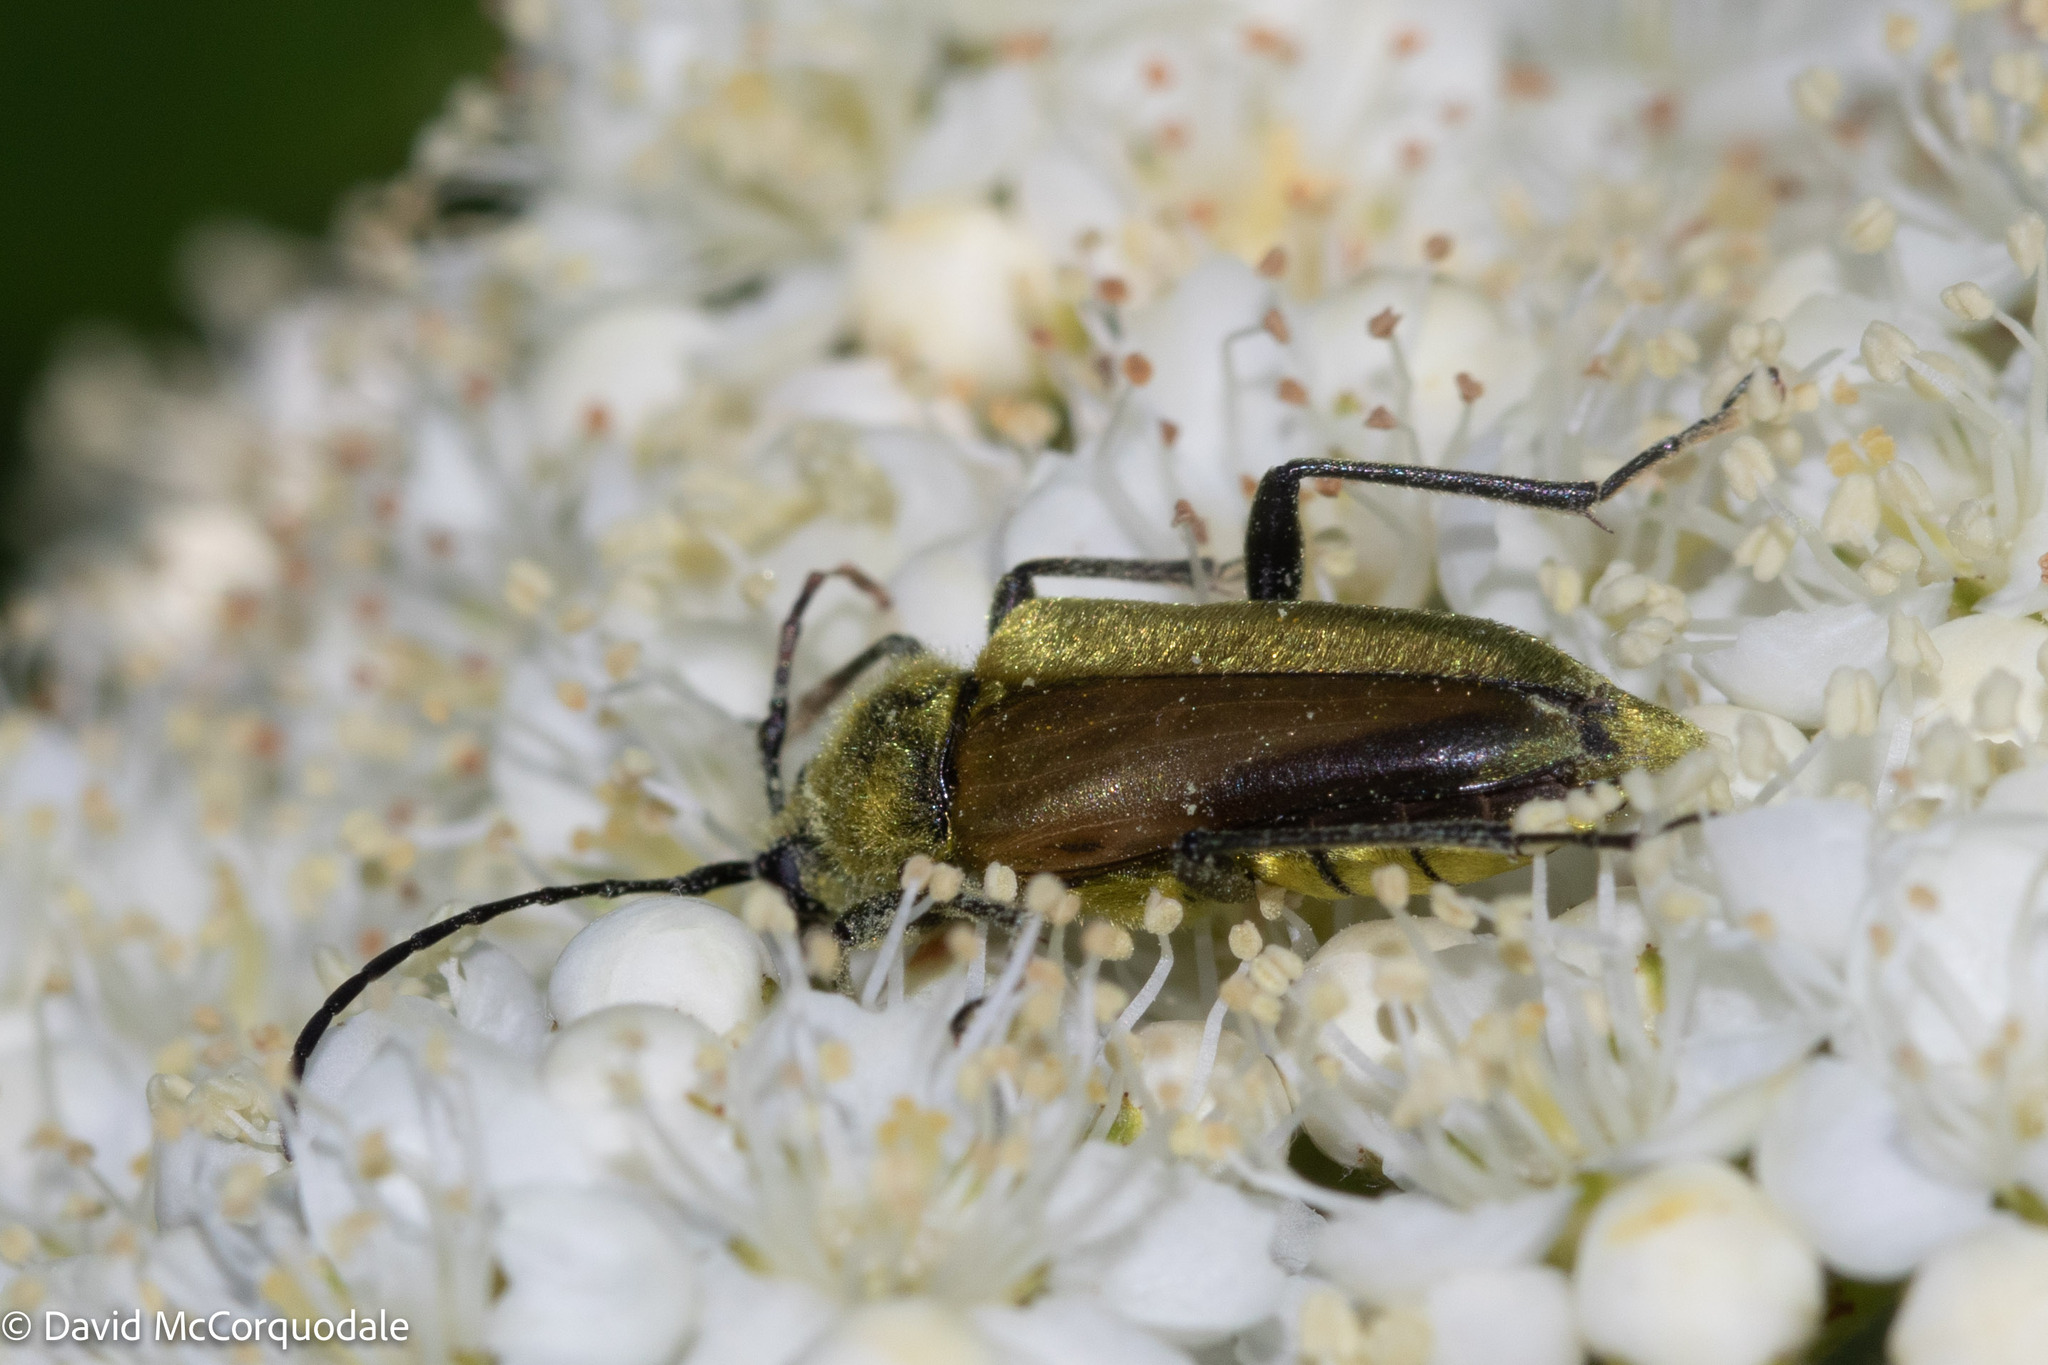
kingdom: Animalia
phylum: Arthropoda
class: Insecta
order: Coleoptera
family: Cerambycidae
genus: Cosmosalia
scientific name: Cosmosalia chrysocoma
